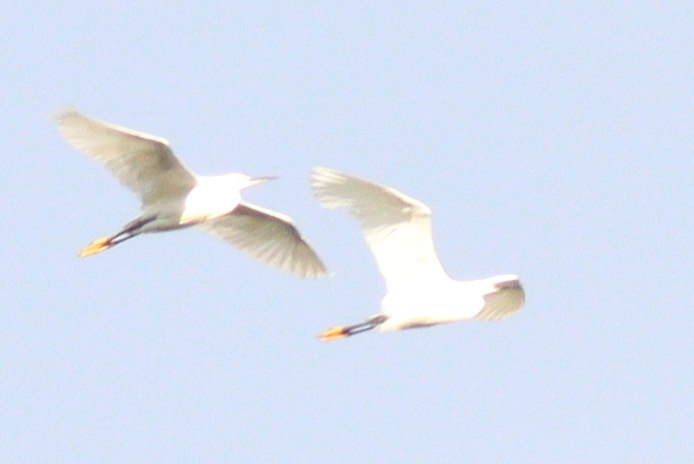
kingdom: Animalia
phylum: Chordata
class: Aves
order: Pelecaniformes
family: Ardeidae
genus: Egretta
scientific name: Egretta thula
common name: Snowy egret
